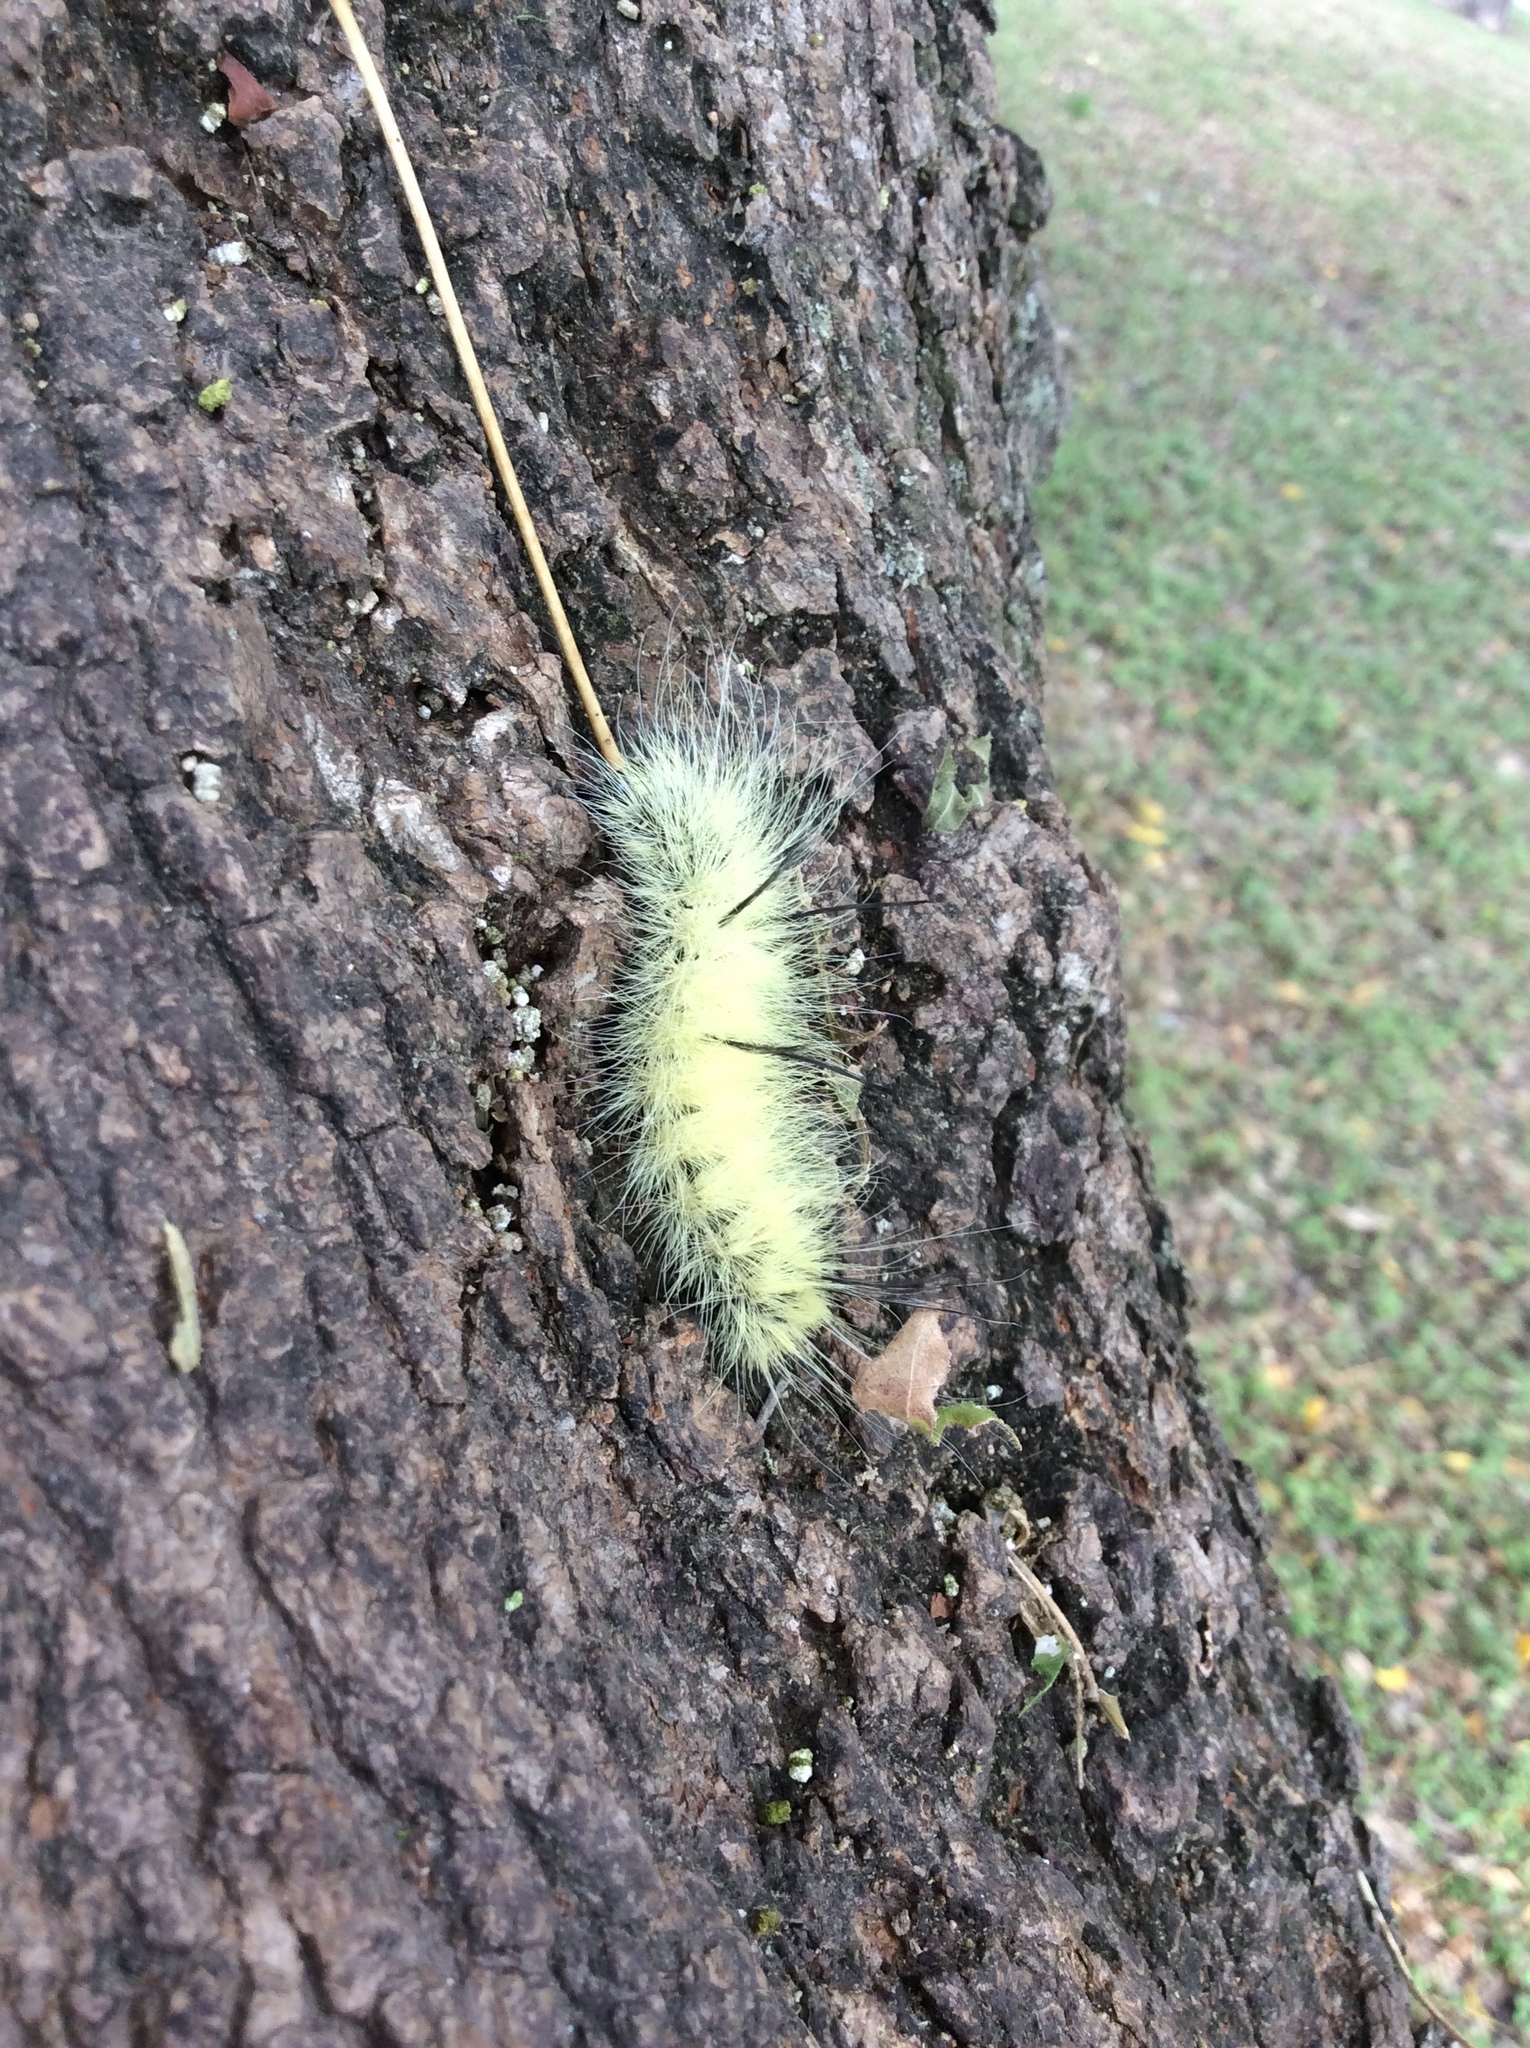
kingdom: Animalia
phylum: Arthropoda
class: Insecta
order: Lepidoptera
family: Noctuidae
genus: Acronicta
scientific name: Acronicta americana
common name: American dagger
